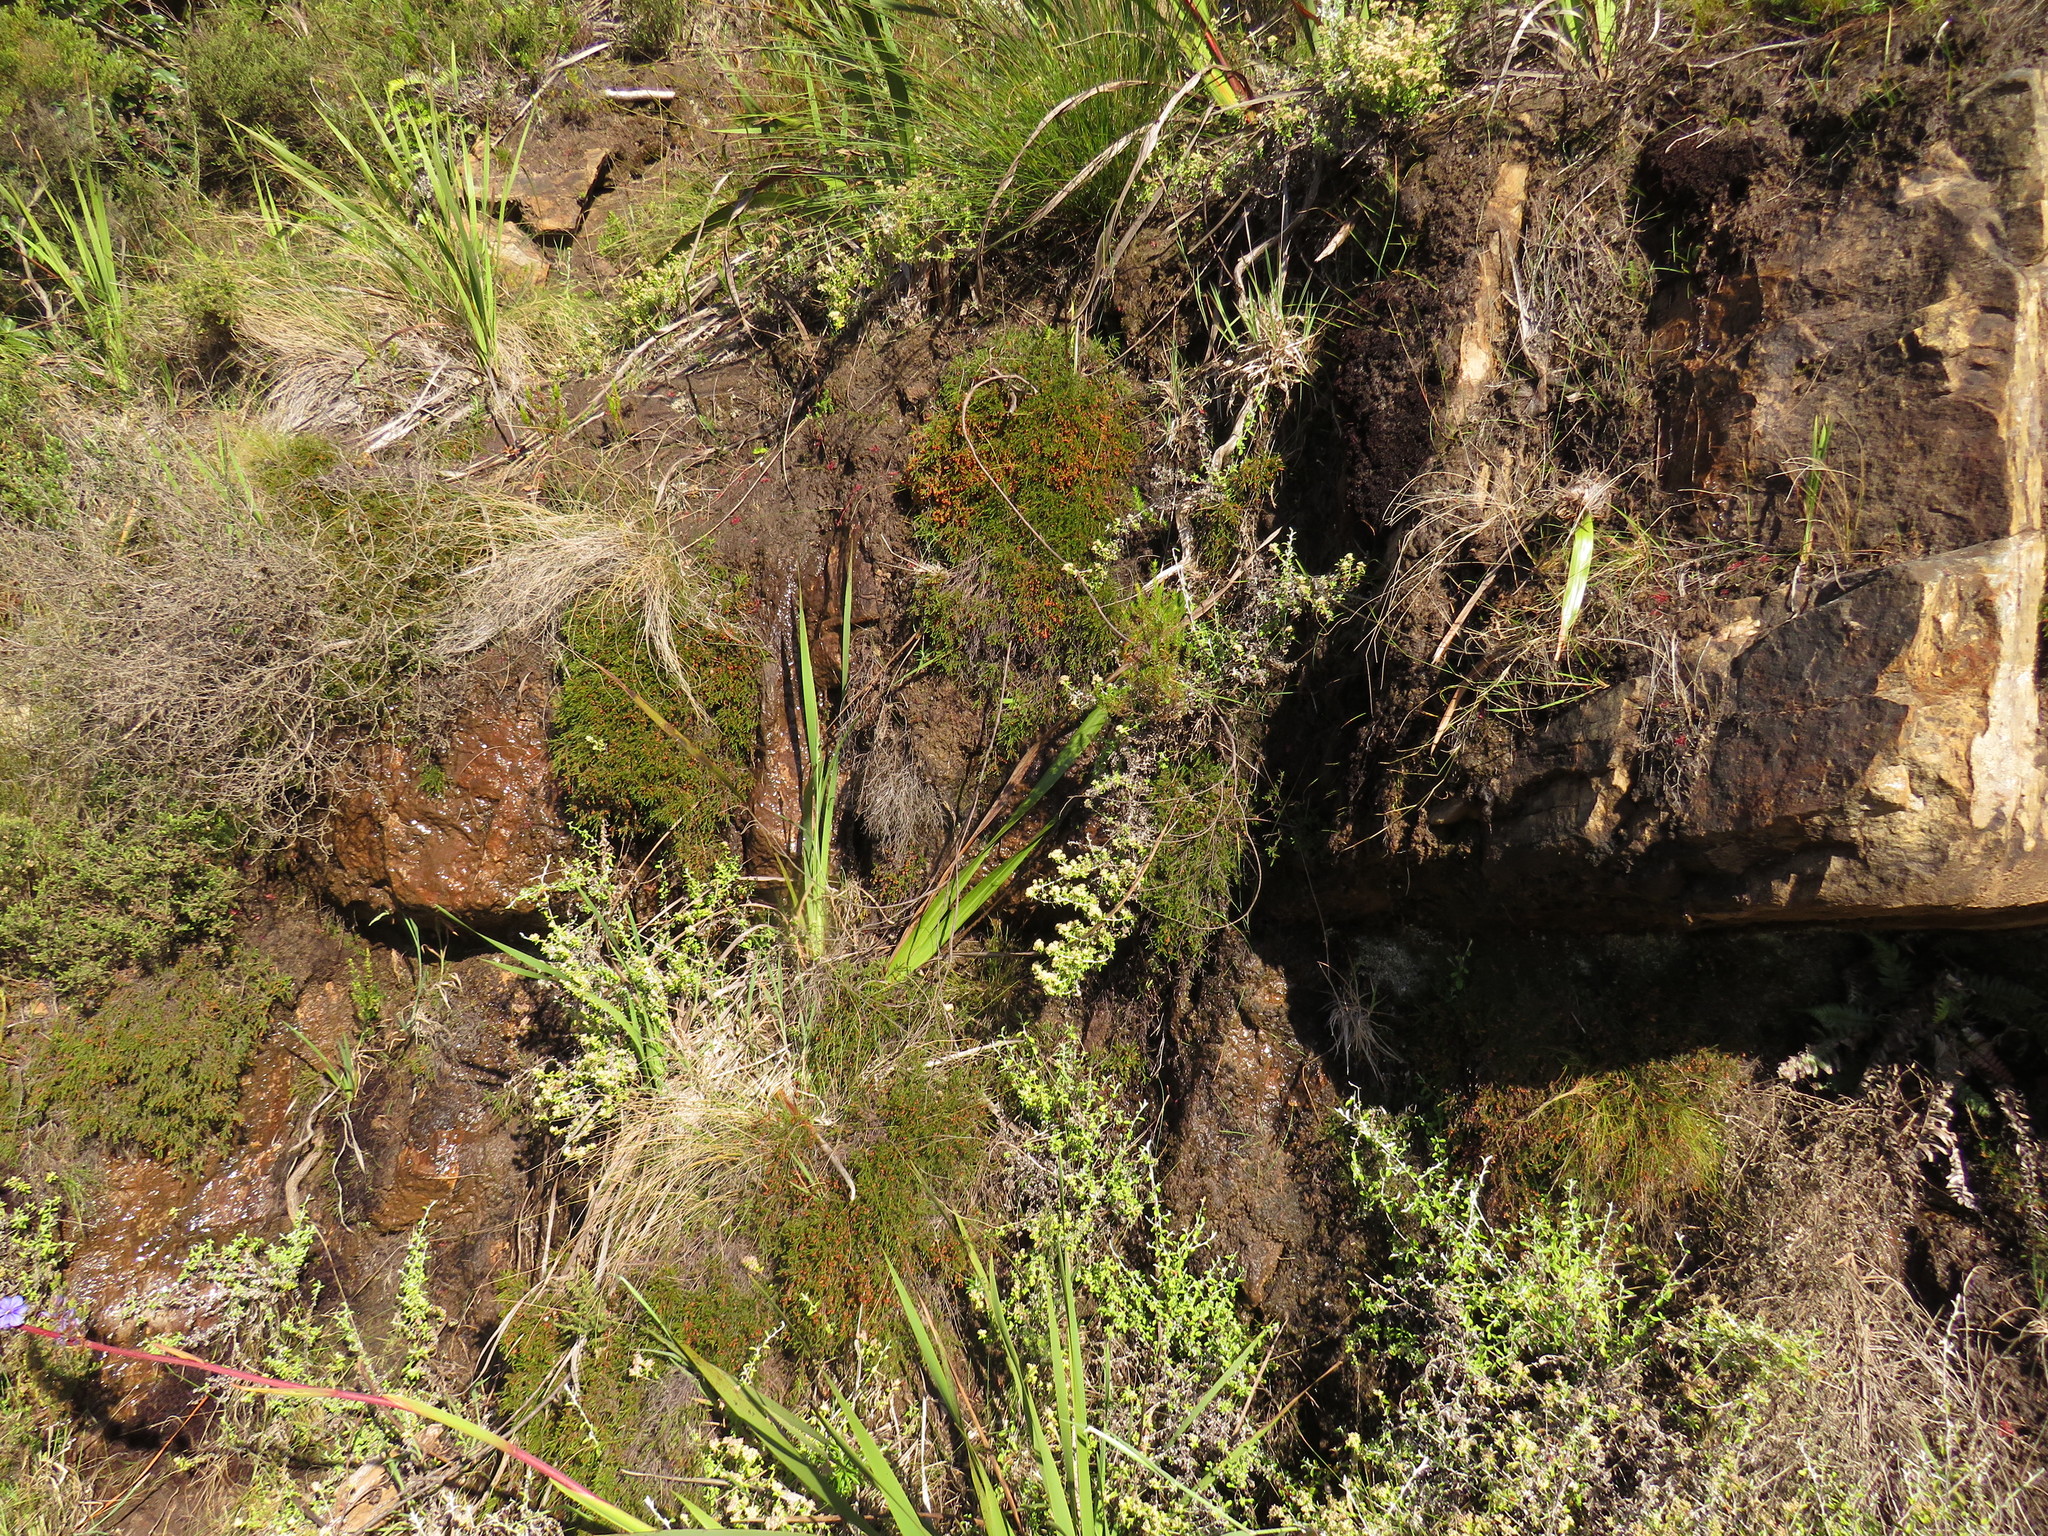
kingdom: Plantae
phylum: Tracheophyta
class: Magnoliopsida
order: Ericales
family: Ericaceae
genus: Erica
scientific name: Erica tenuis
